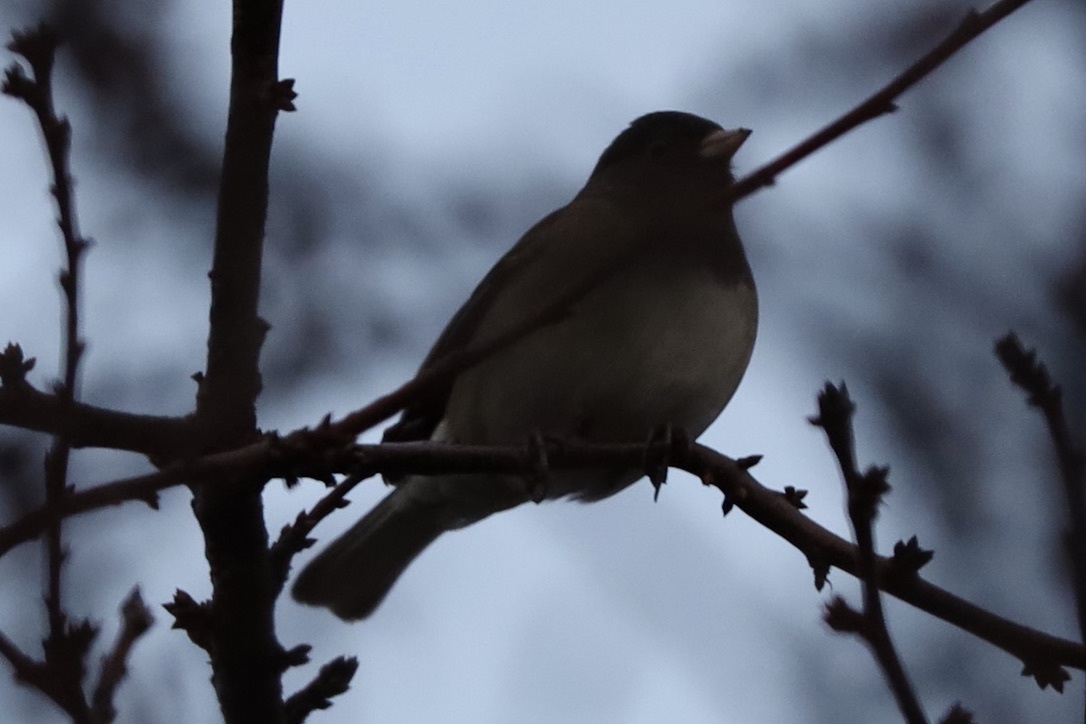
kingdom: Animalia
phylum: Chordata
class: Aves
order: Passeriformes
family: Passerellidae
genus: Junco
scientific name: Junco hyemalis
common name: Dark-eyed junco
